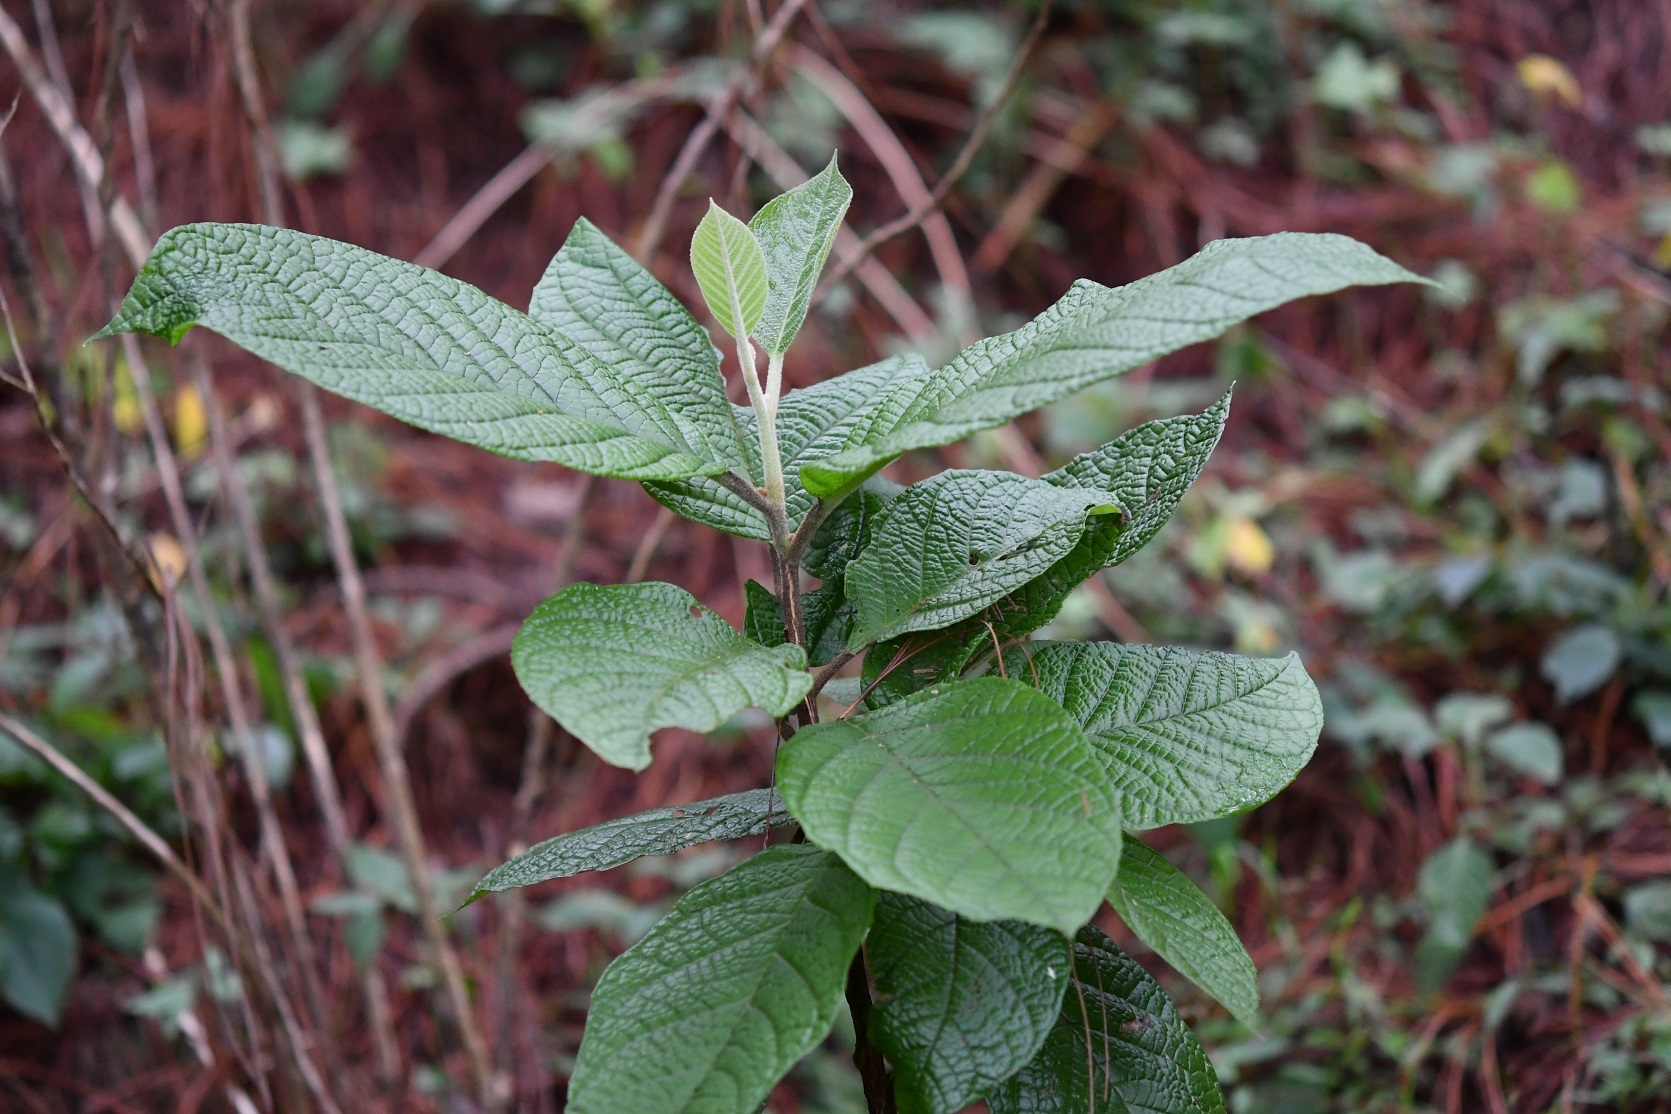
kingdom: Plantae
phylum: Tracheophyta
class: Magnoliopsida
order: Ericales
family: Styracaceae
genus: Styrax
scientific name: Styrax magnus
